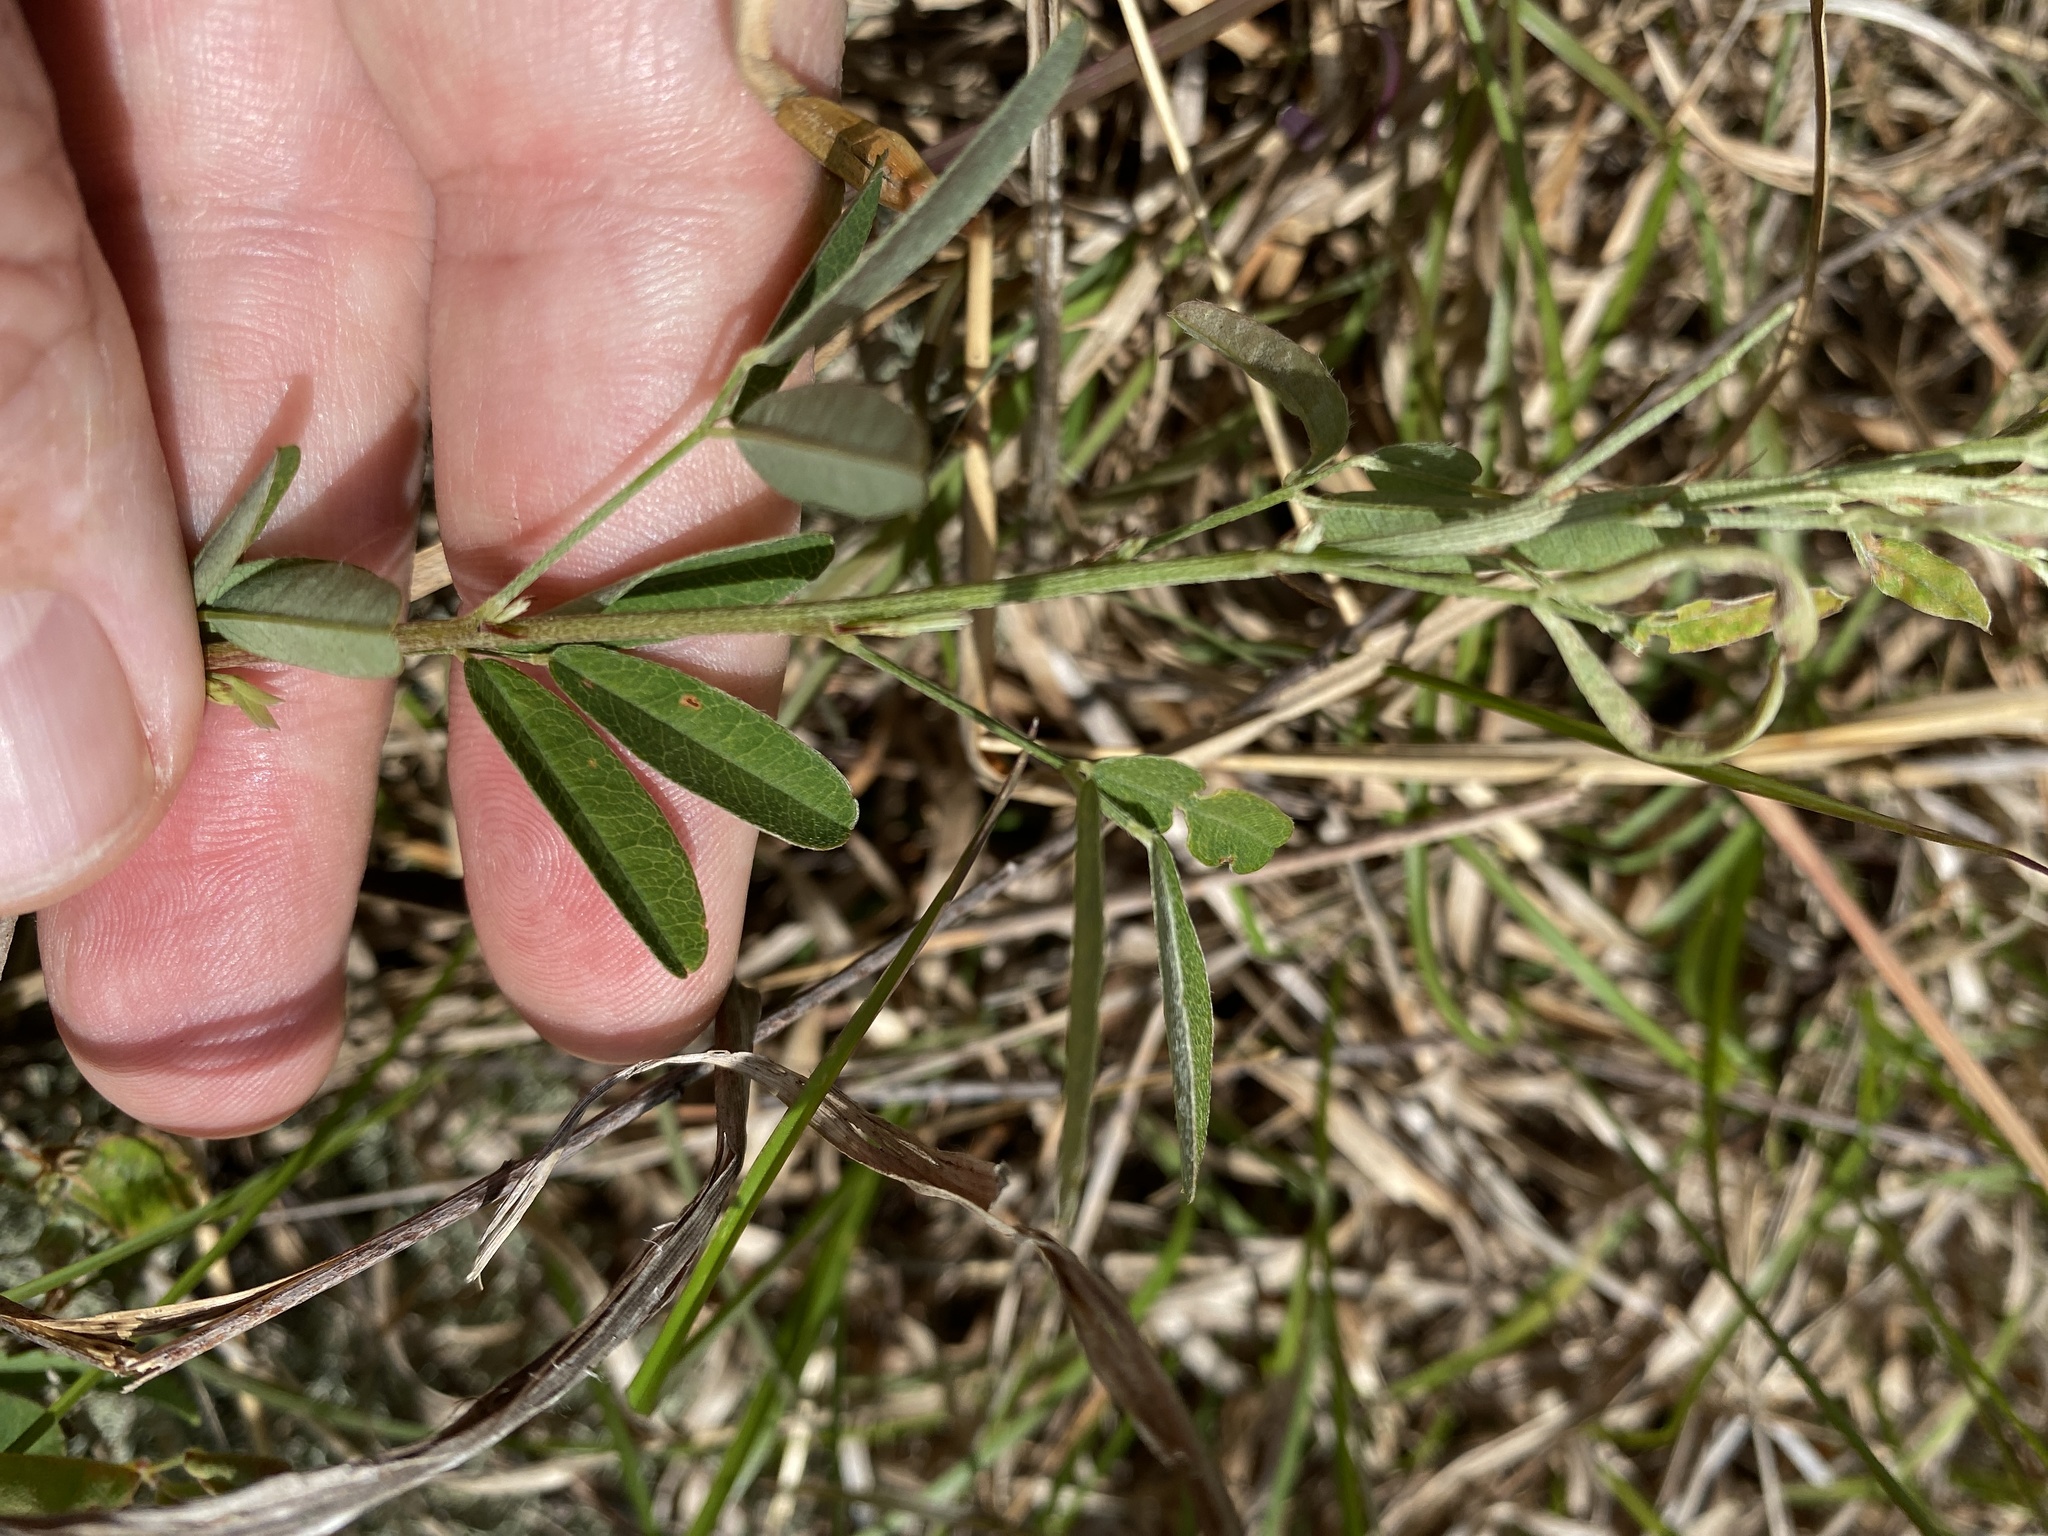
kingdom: Plantae
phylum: Tracheophyta
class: Magnoliopsida
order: Fabales
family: Fabaceae
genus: Lespedeza
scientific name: Lespedeza virginica
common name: Slender bush-clover
